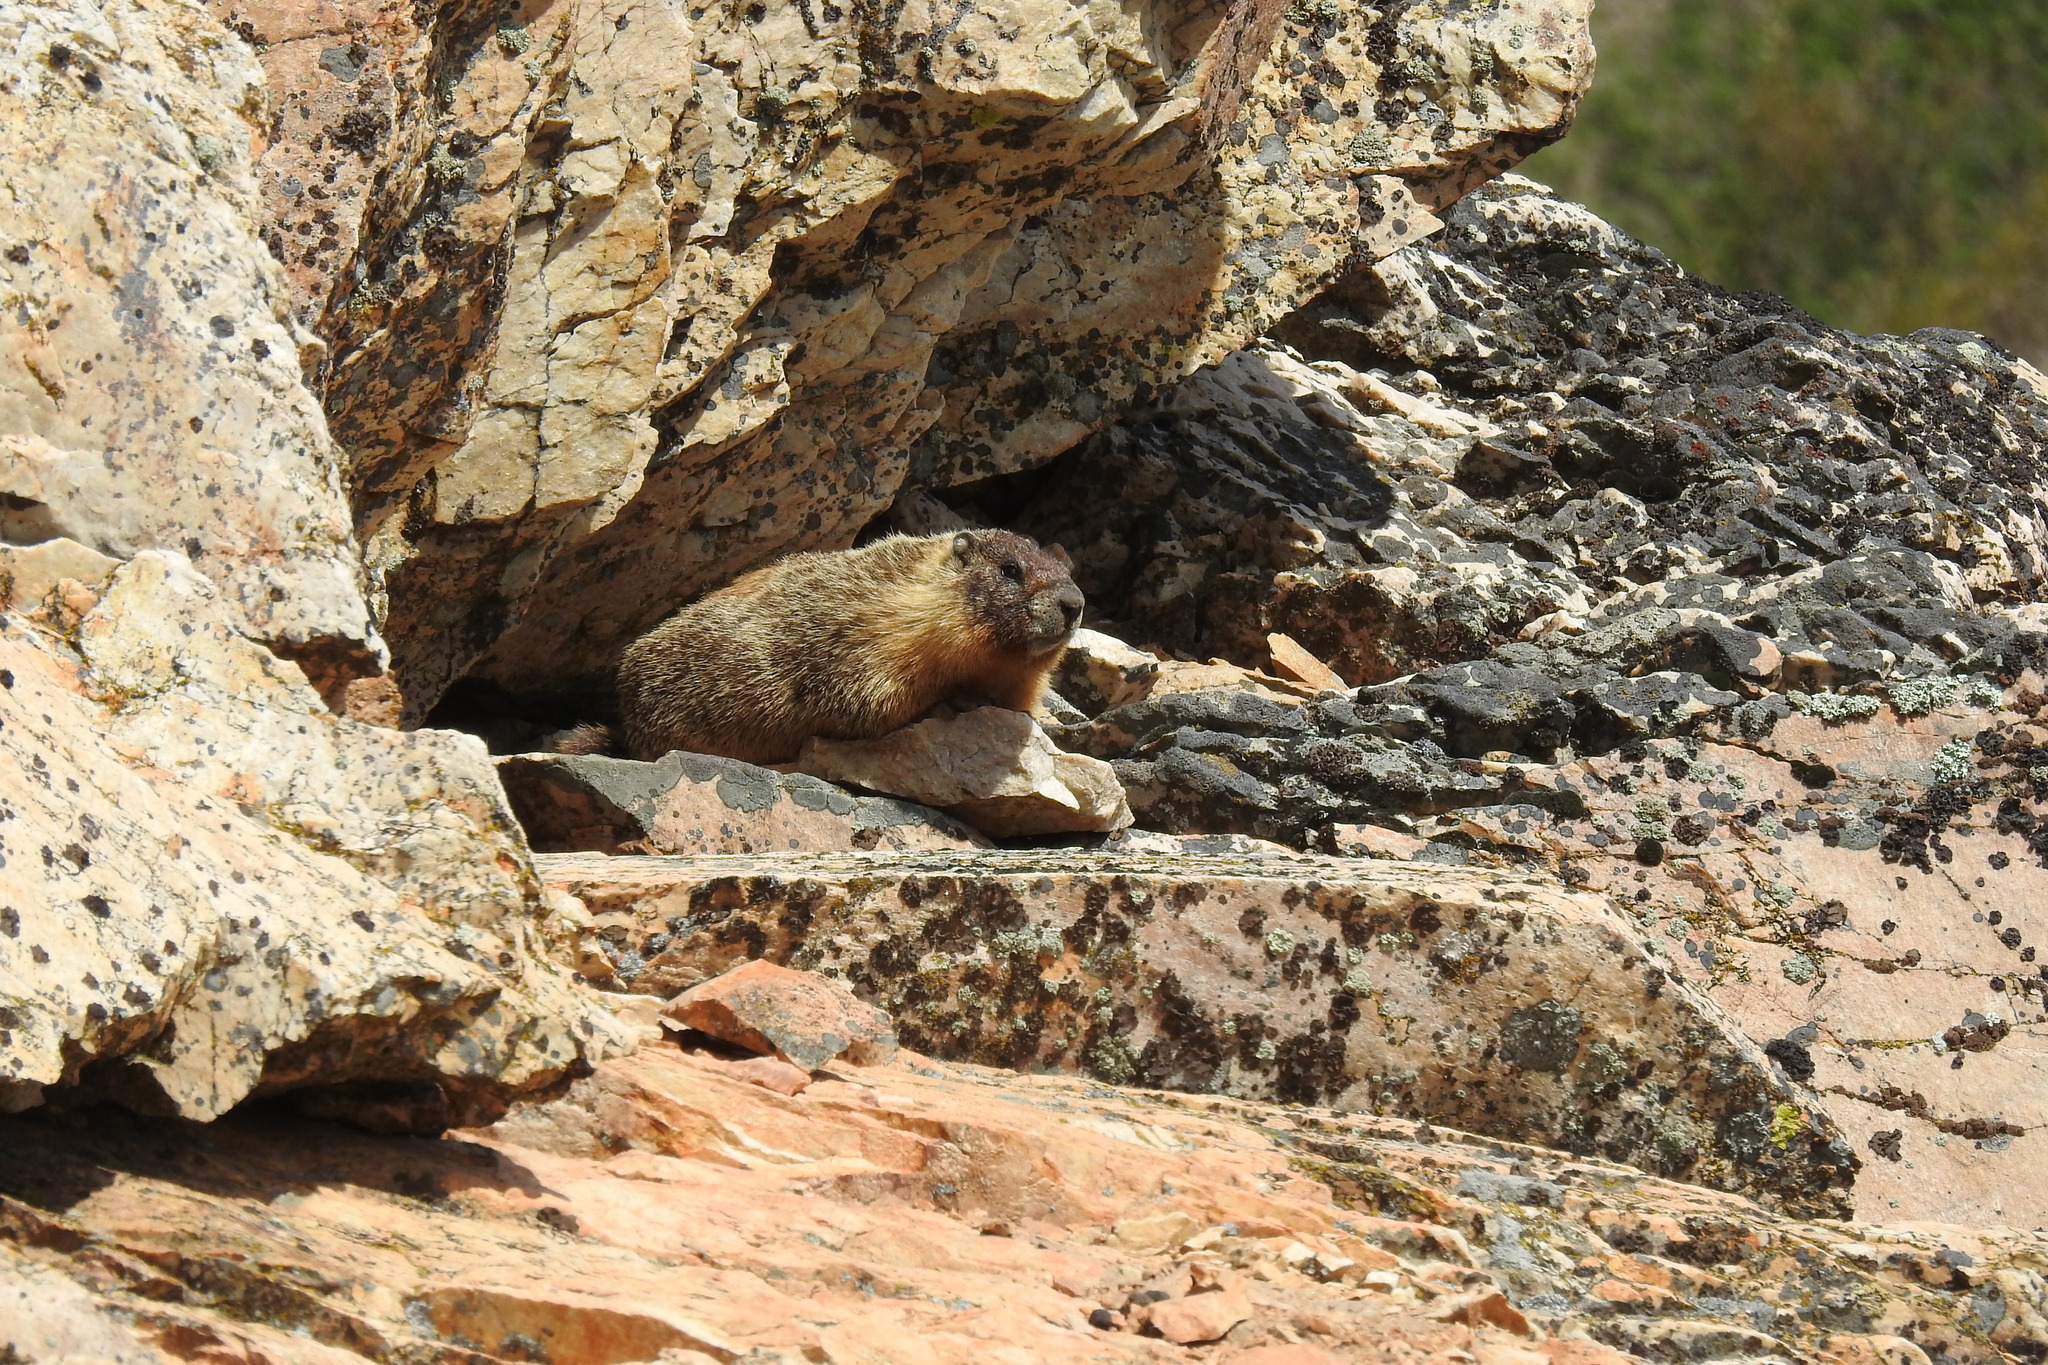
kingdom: Animalia
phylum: Chordata
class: Mammalia
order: Rodentia
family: Sciuridae
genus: Marmota
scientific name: Marmota flaviventris
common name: Yellow-bellied marmot
